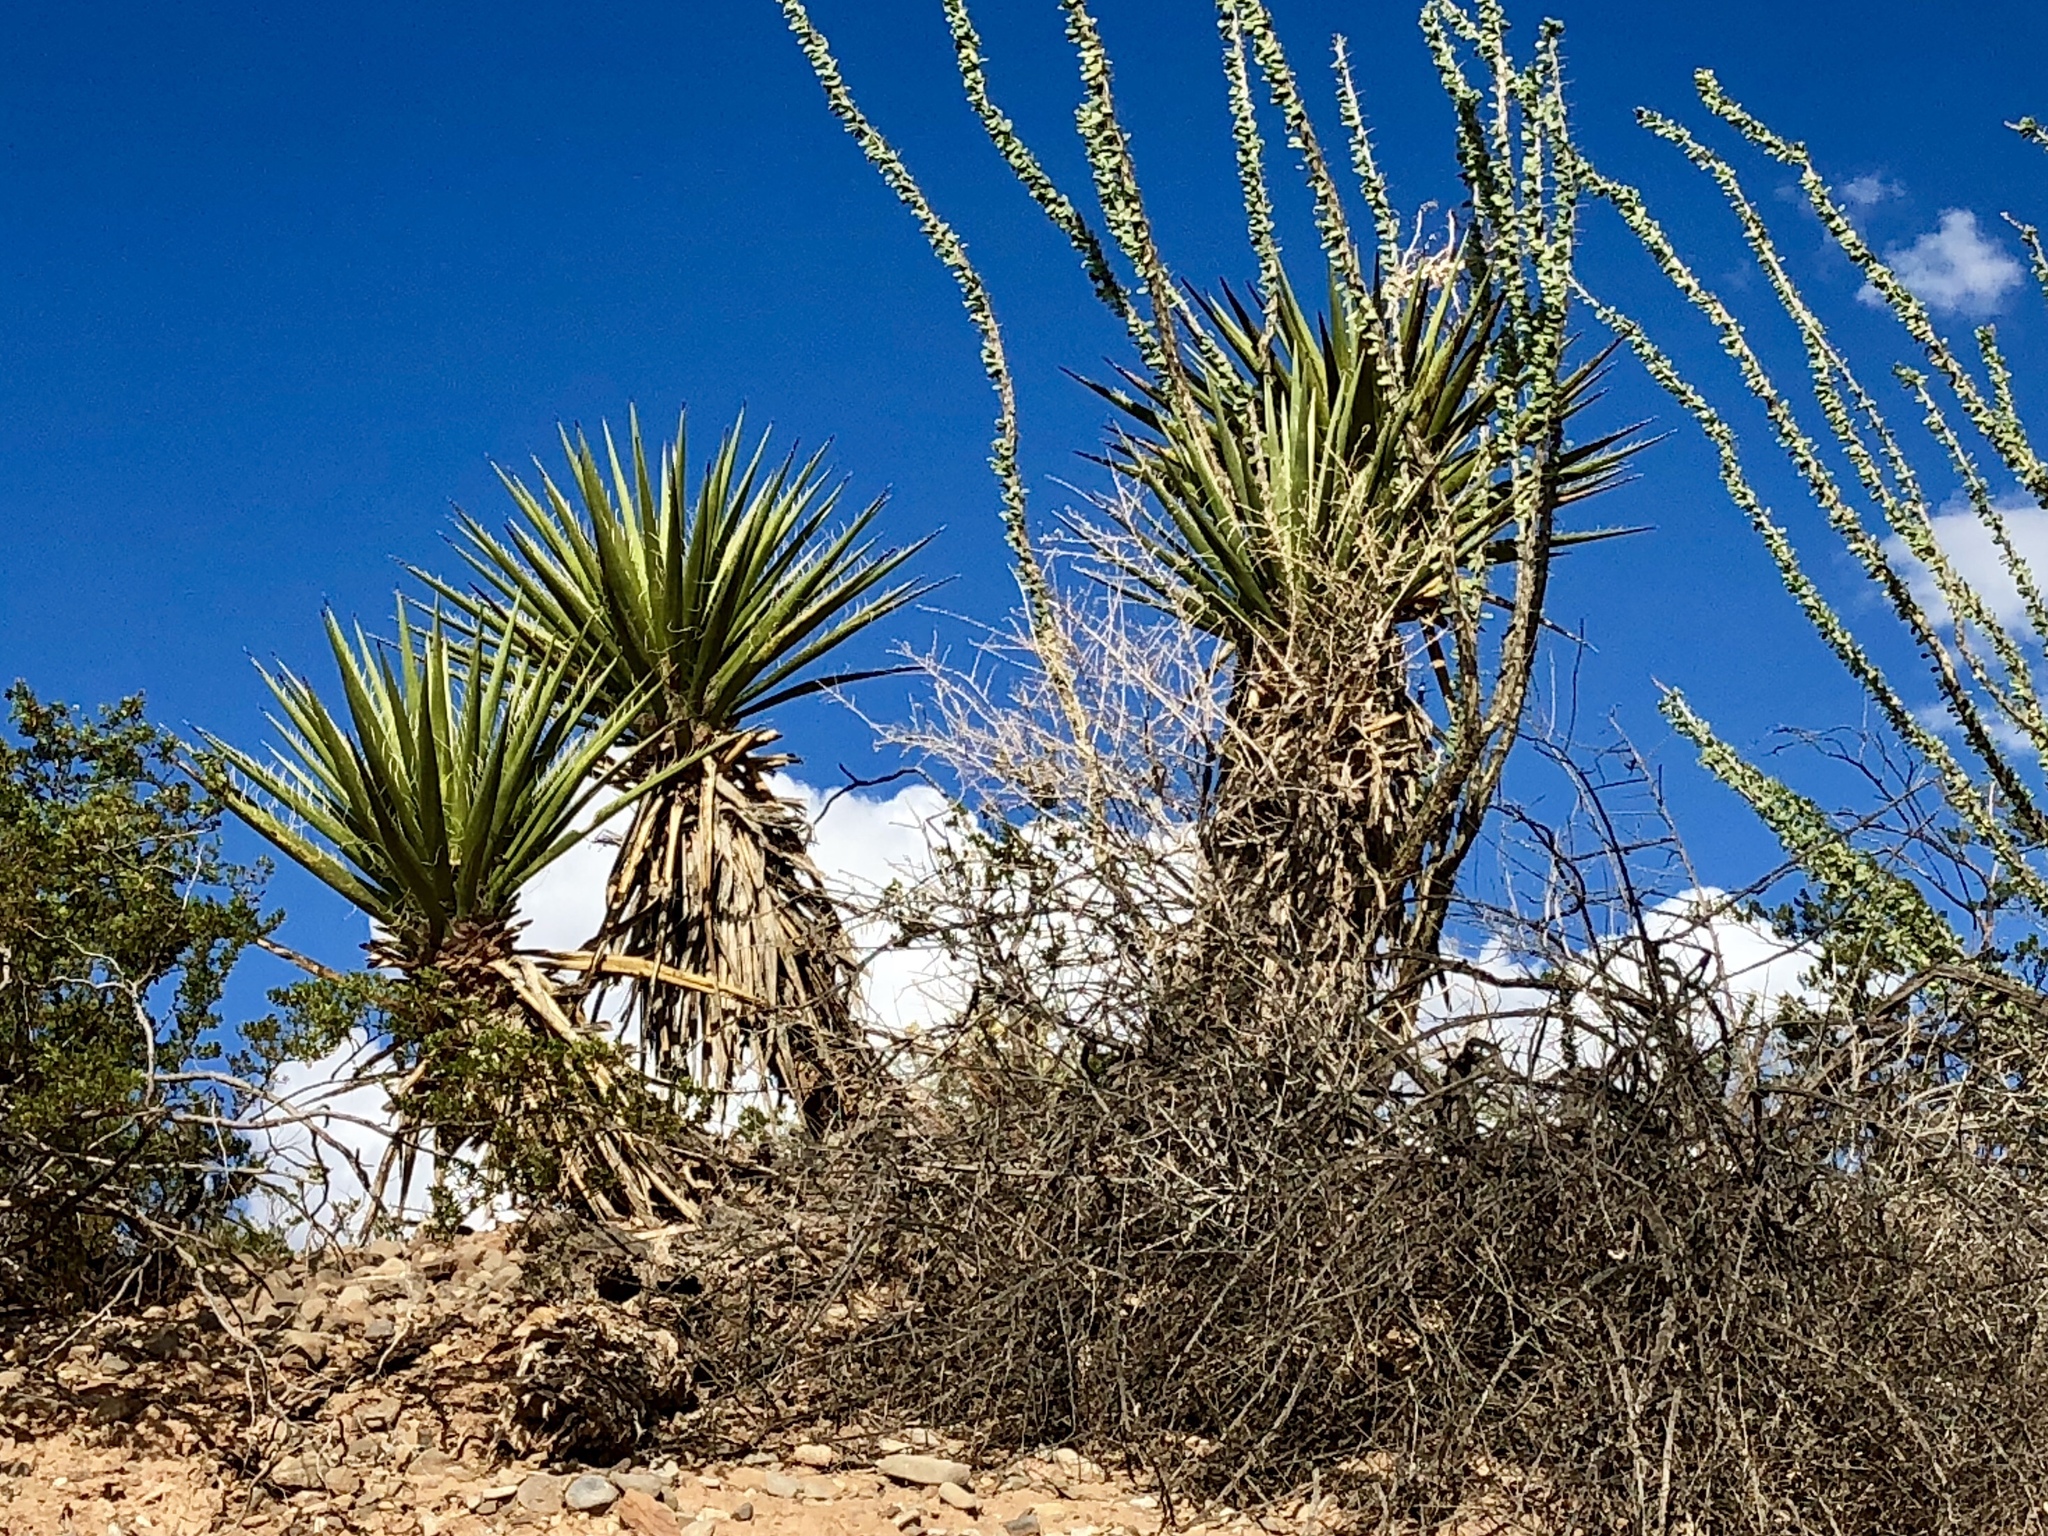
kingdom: Plantae
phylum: Tracheophyta
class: Liliopsida
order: Asparagales
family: Asparagaceae
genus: Yucca
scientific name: Yucca treculiana
